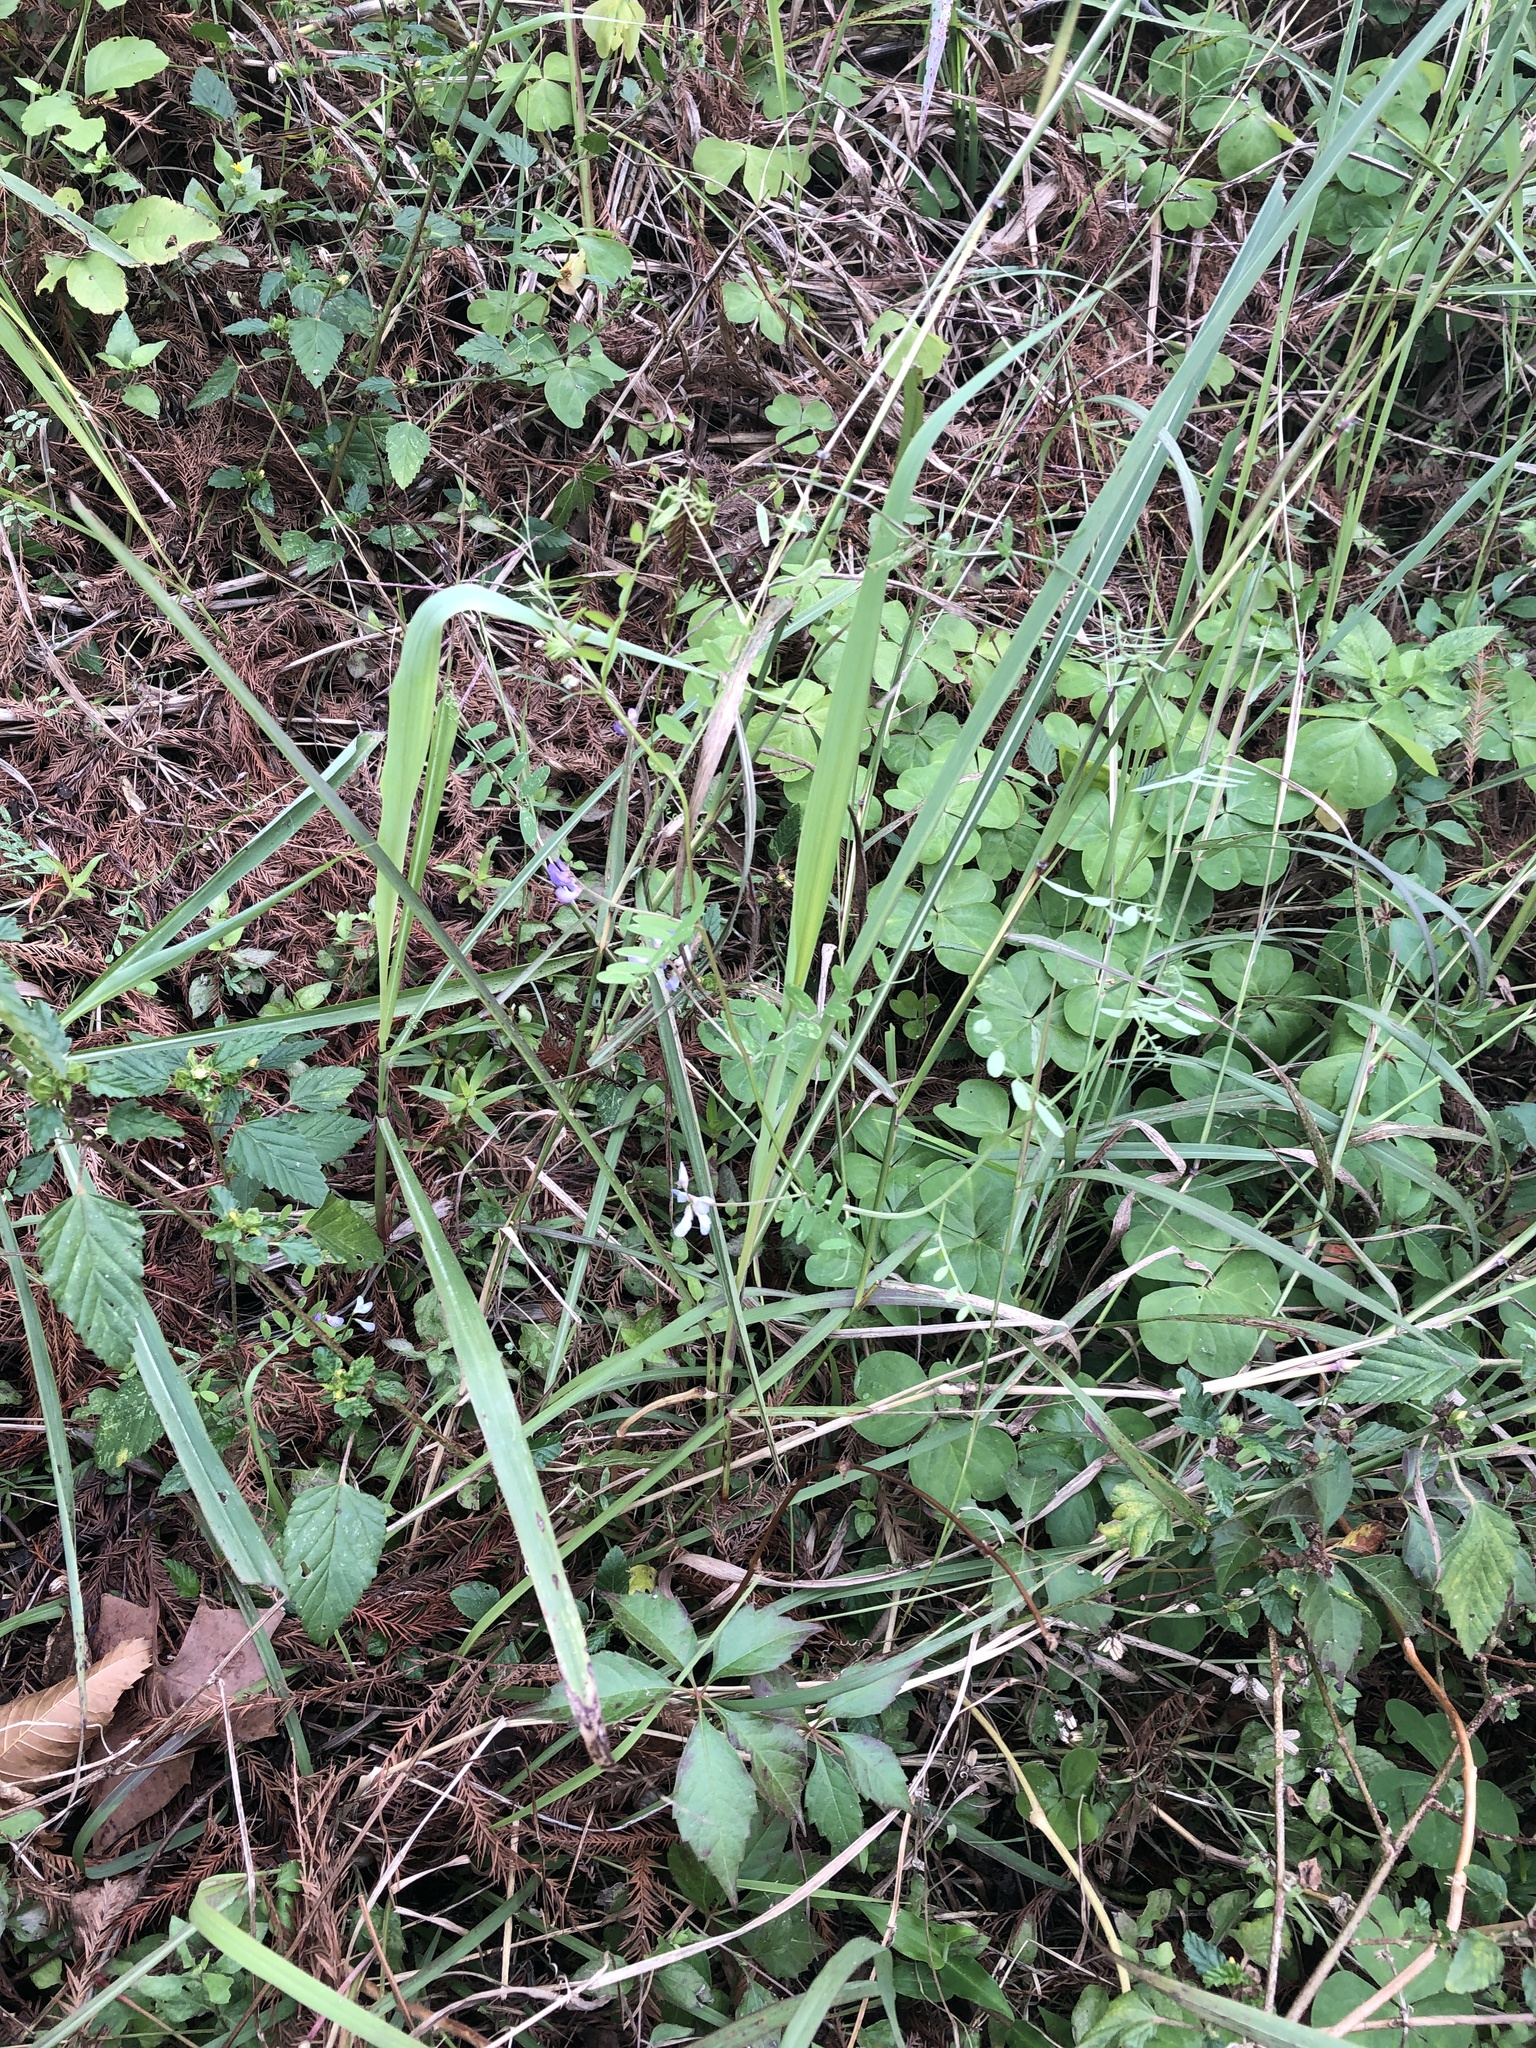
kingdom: Plantae
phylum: Tracheophyta
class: Magnoliopsida
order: Fabales
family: Fabaceae
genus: Vicia
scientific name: Vicia ludoviciana
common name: Louisiana vetch
